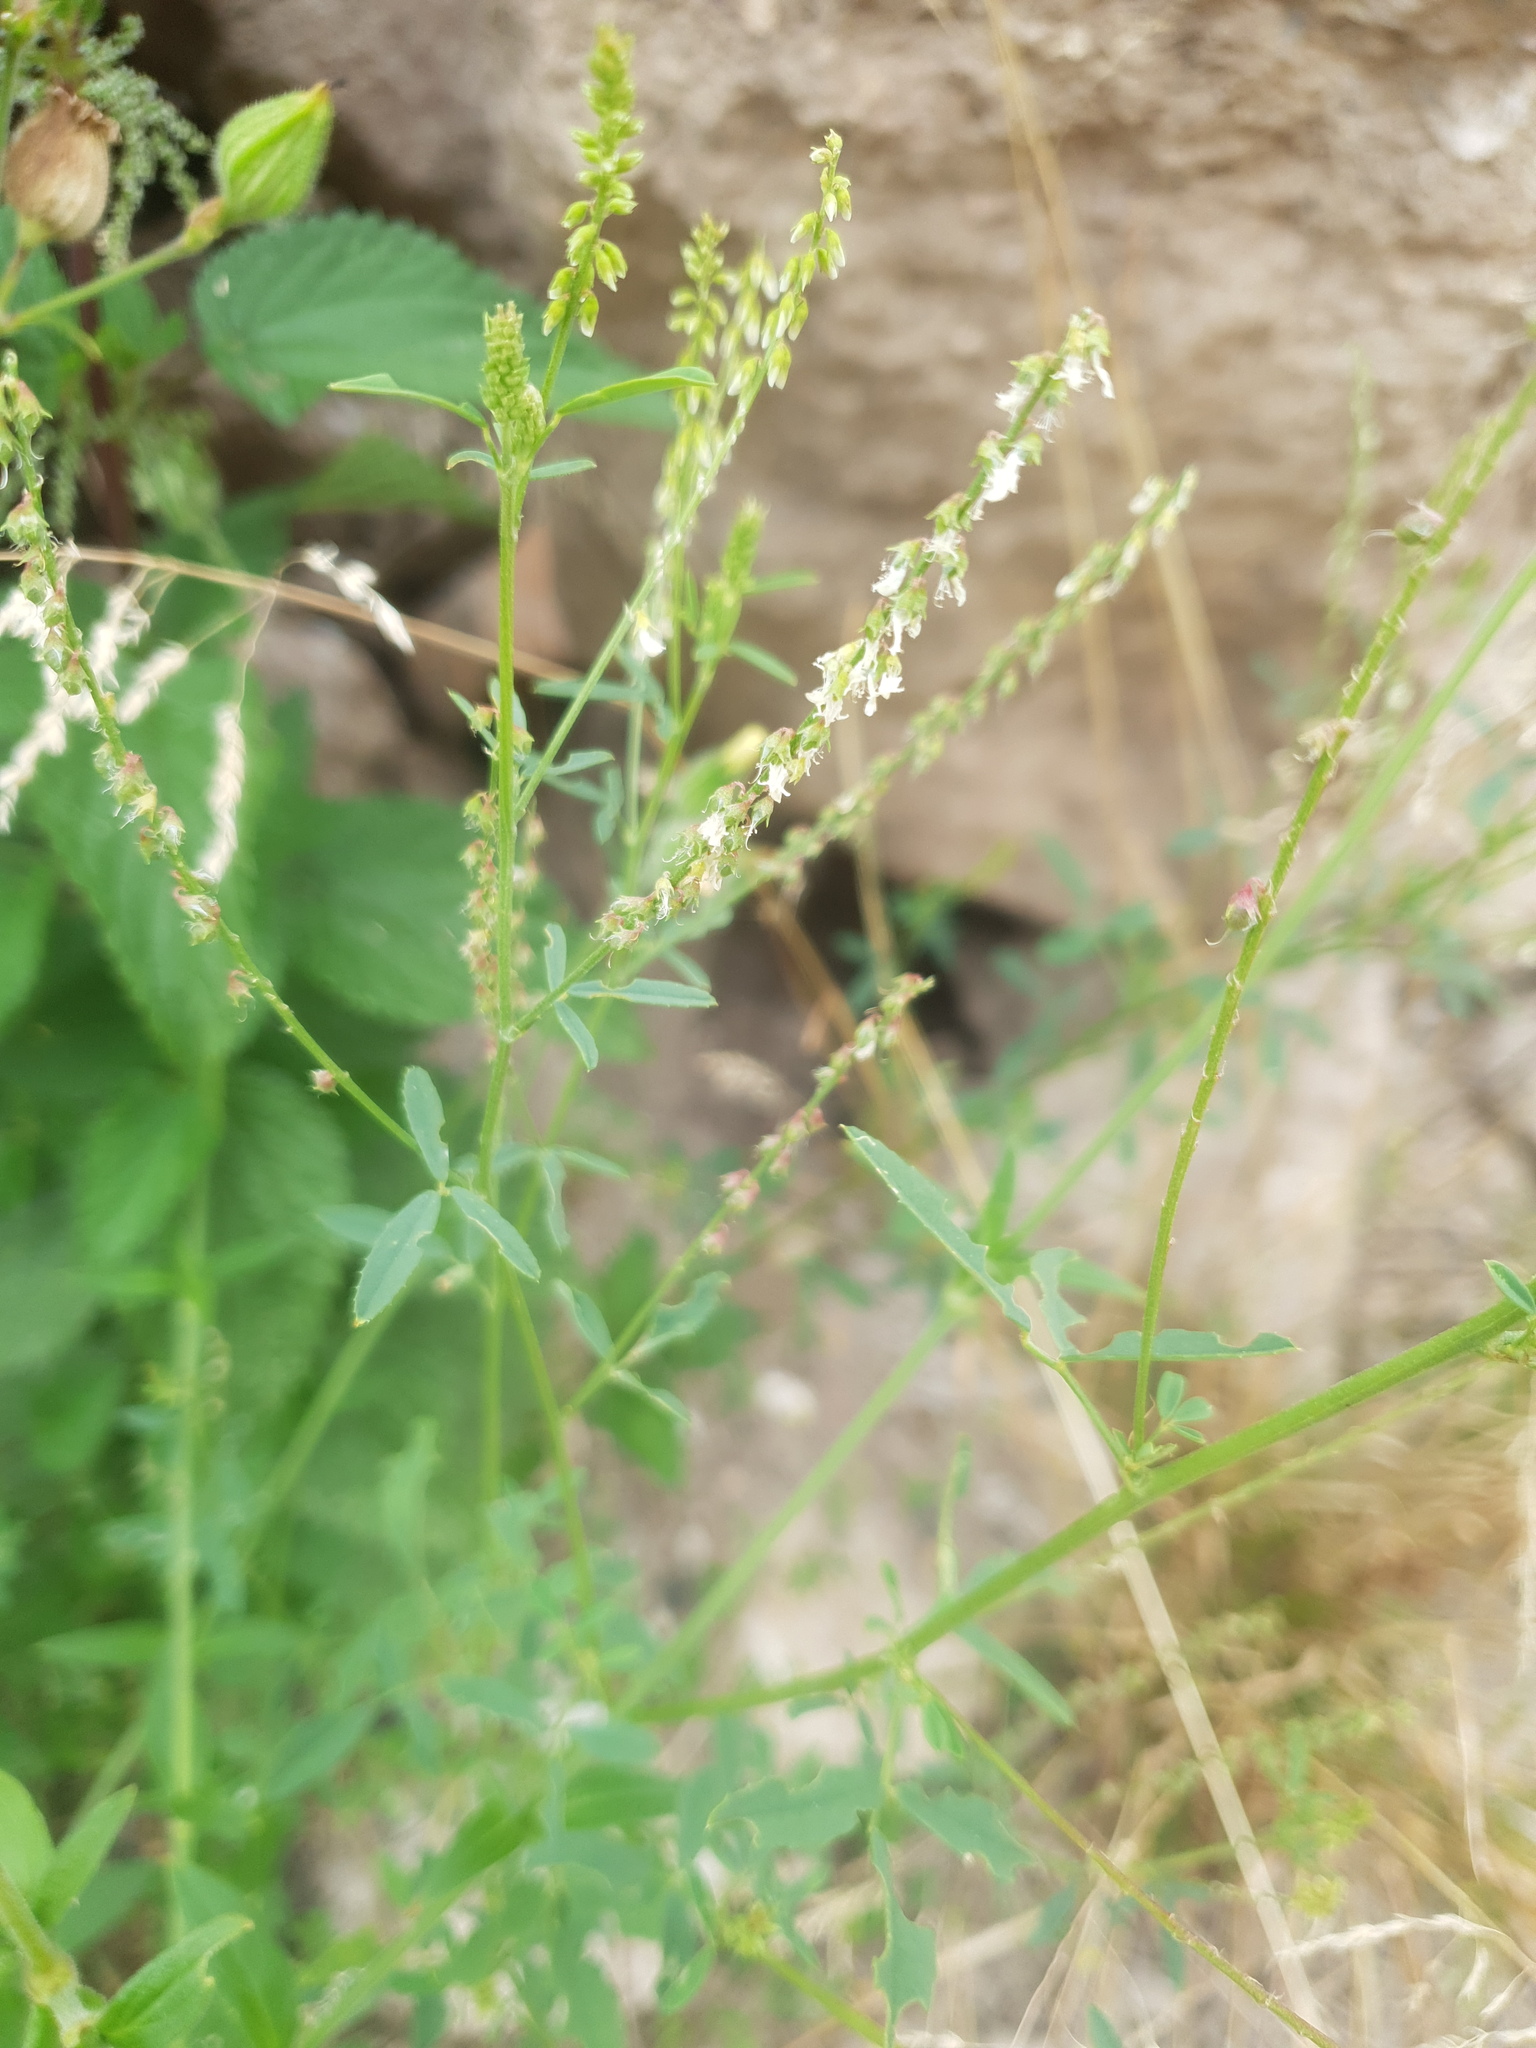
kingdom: Plantae
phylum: Tracheophyta
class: Magnoliopsida
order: Fabales
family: Fabaceae
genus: Melilotus
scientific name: Melilotus albus
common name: White melilot
